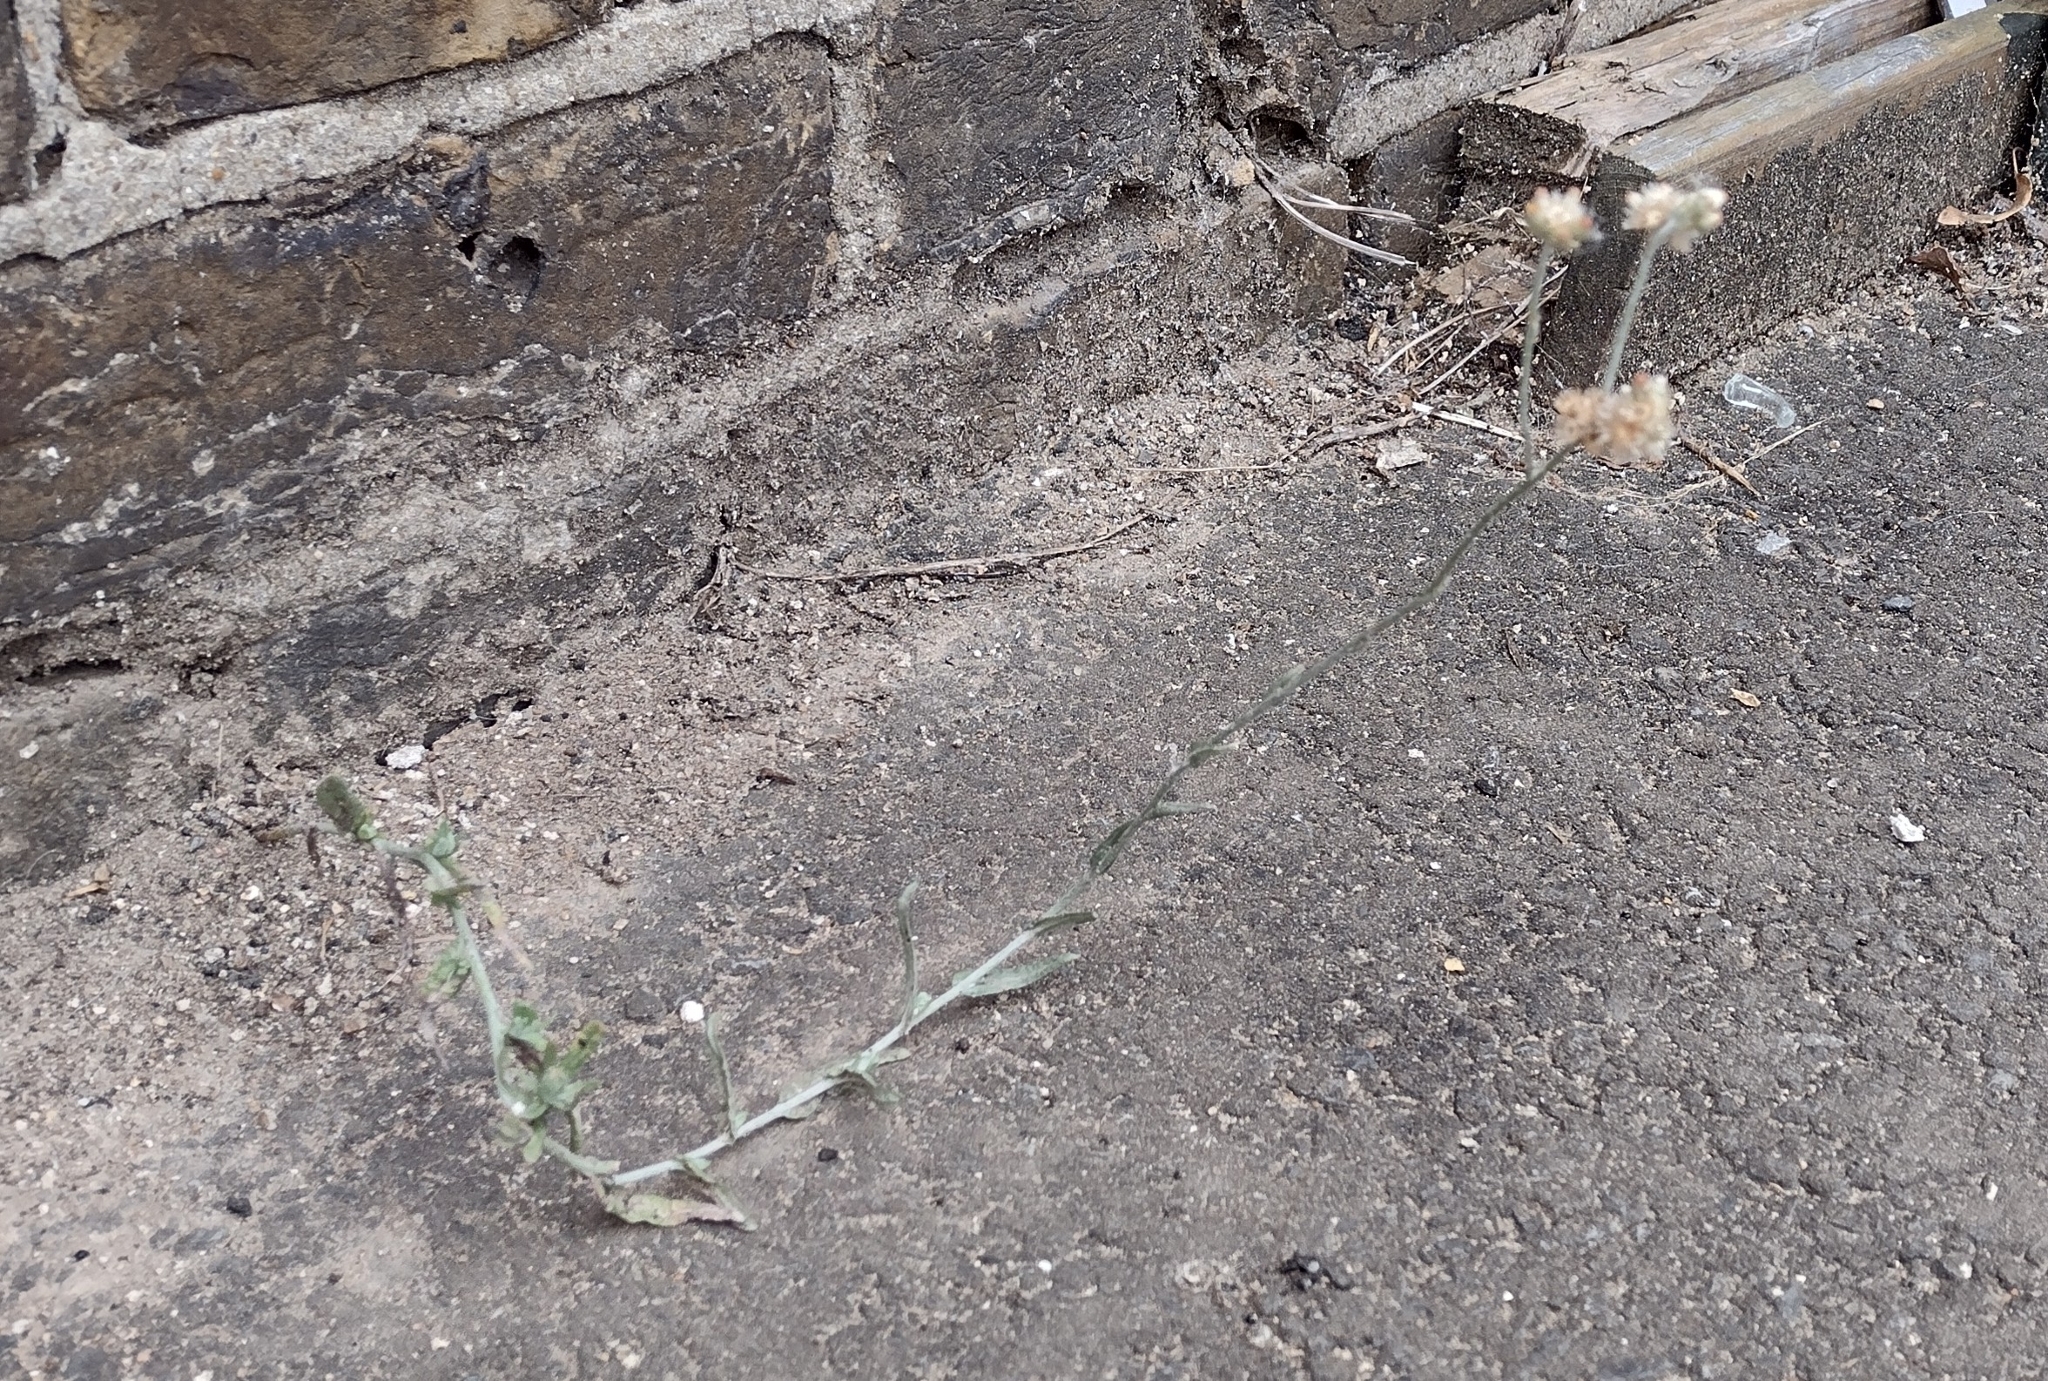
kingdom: Plantae
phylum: Tracheophyta
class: Magnoliopsida
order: Asterales
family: Asteraceae
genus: Helichrysum
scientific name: Helichrysum luteoalbum
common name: Daisy
